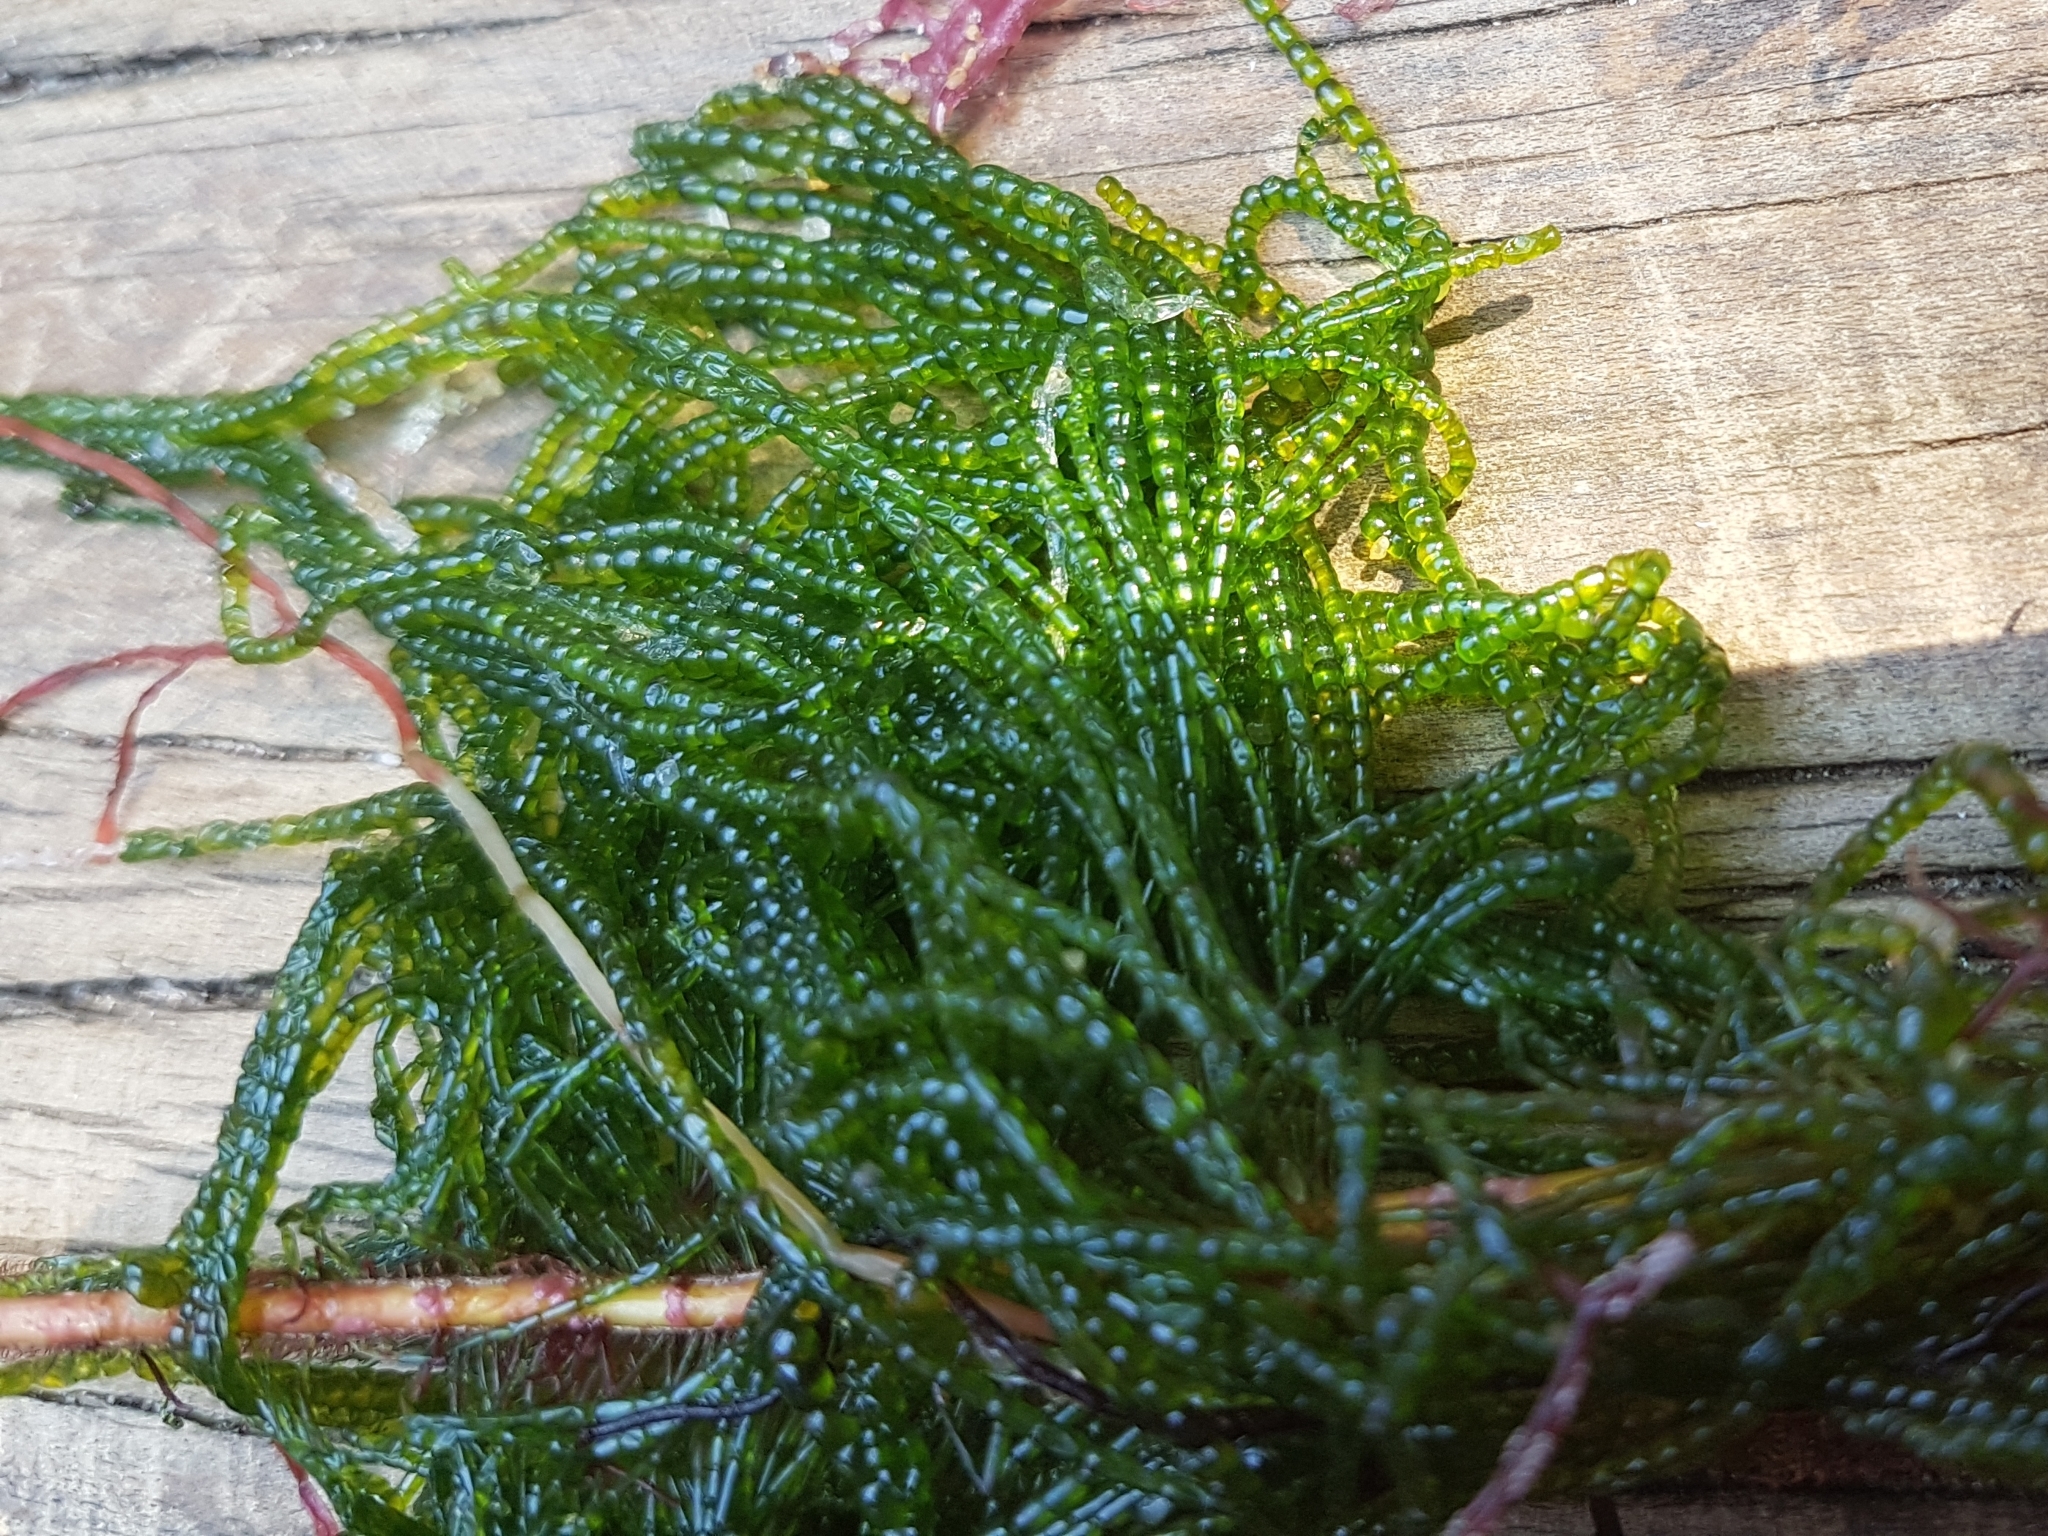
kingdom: Plantae
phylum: Chlorophyta
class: Ulvophyceae
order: Cladophorales
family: Cladophoraceae
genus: Chaetomorpha
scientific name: Chaetomorpha coliformis
